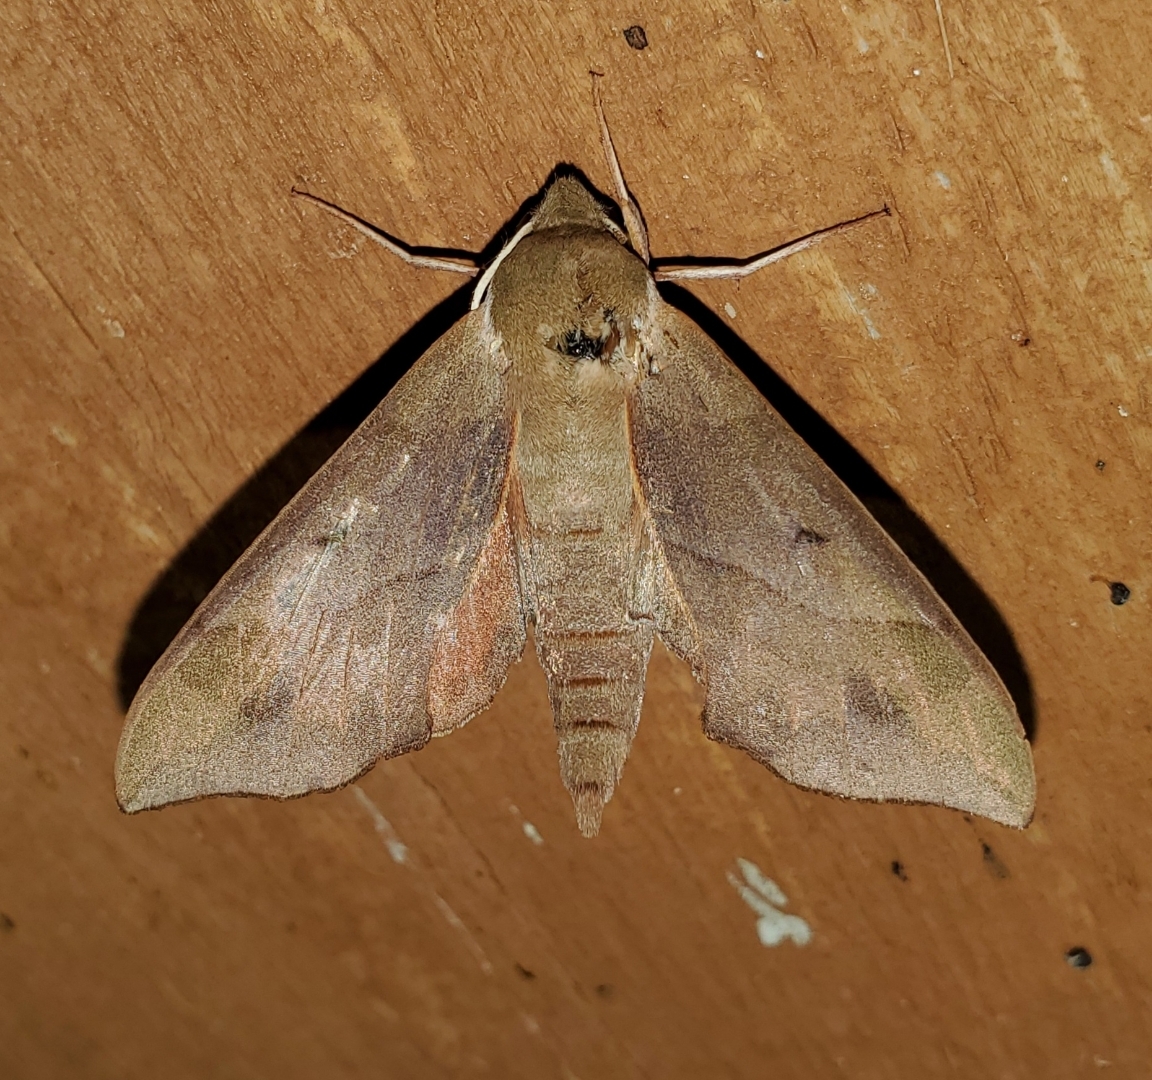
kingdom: Animalia
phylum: Arthropoda
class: Insecta
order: Lepidoptera
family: Sphingidae
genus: Darapsa
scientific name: Darapsa myron
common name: Hog sphinx
